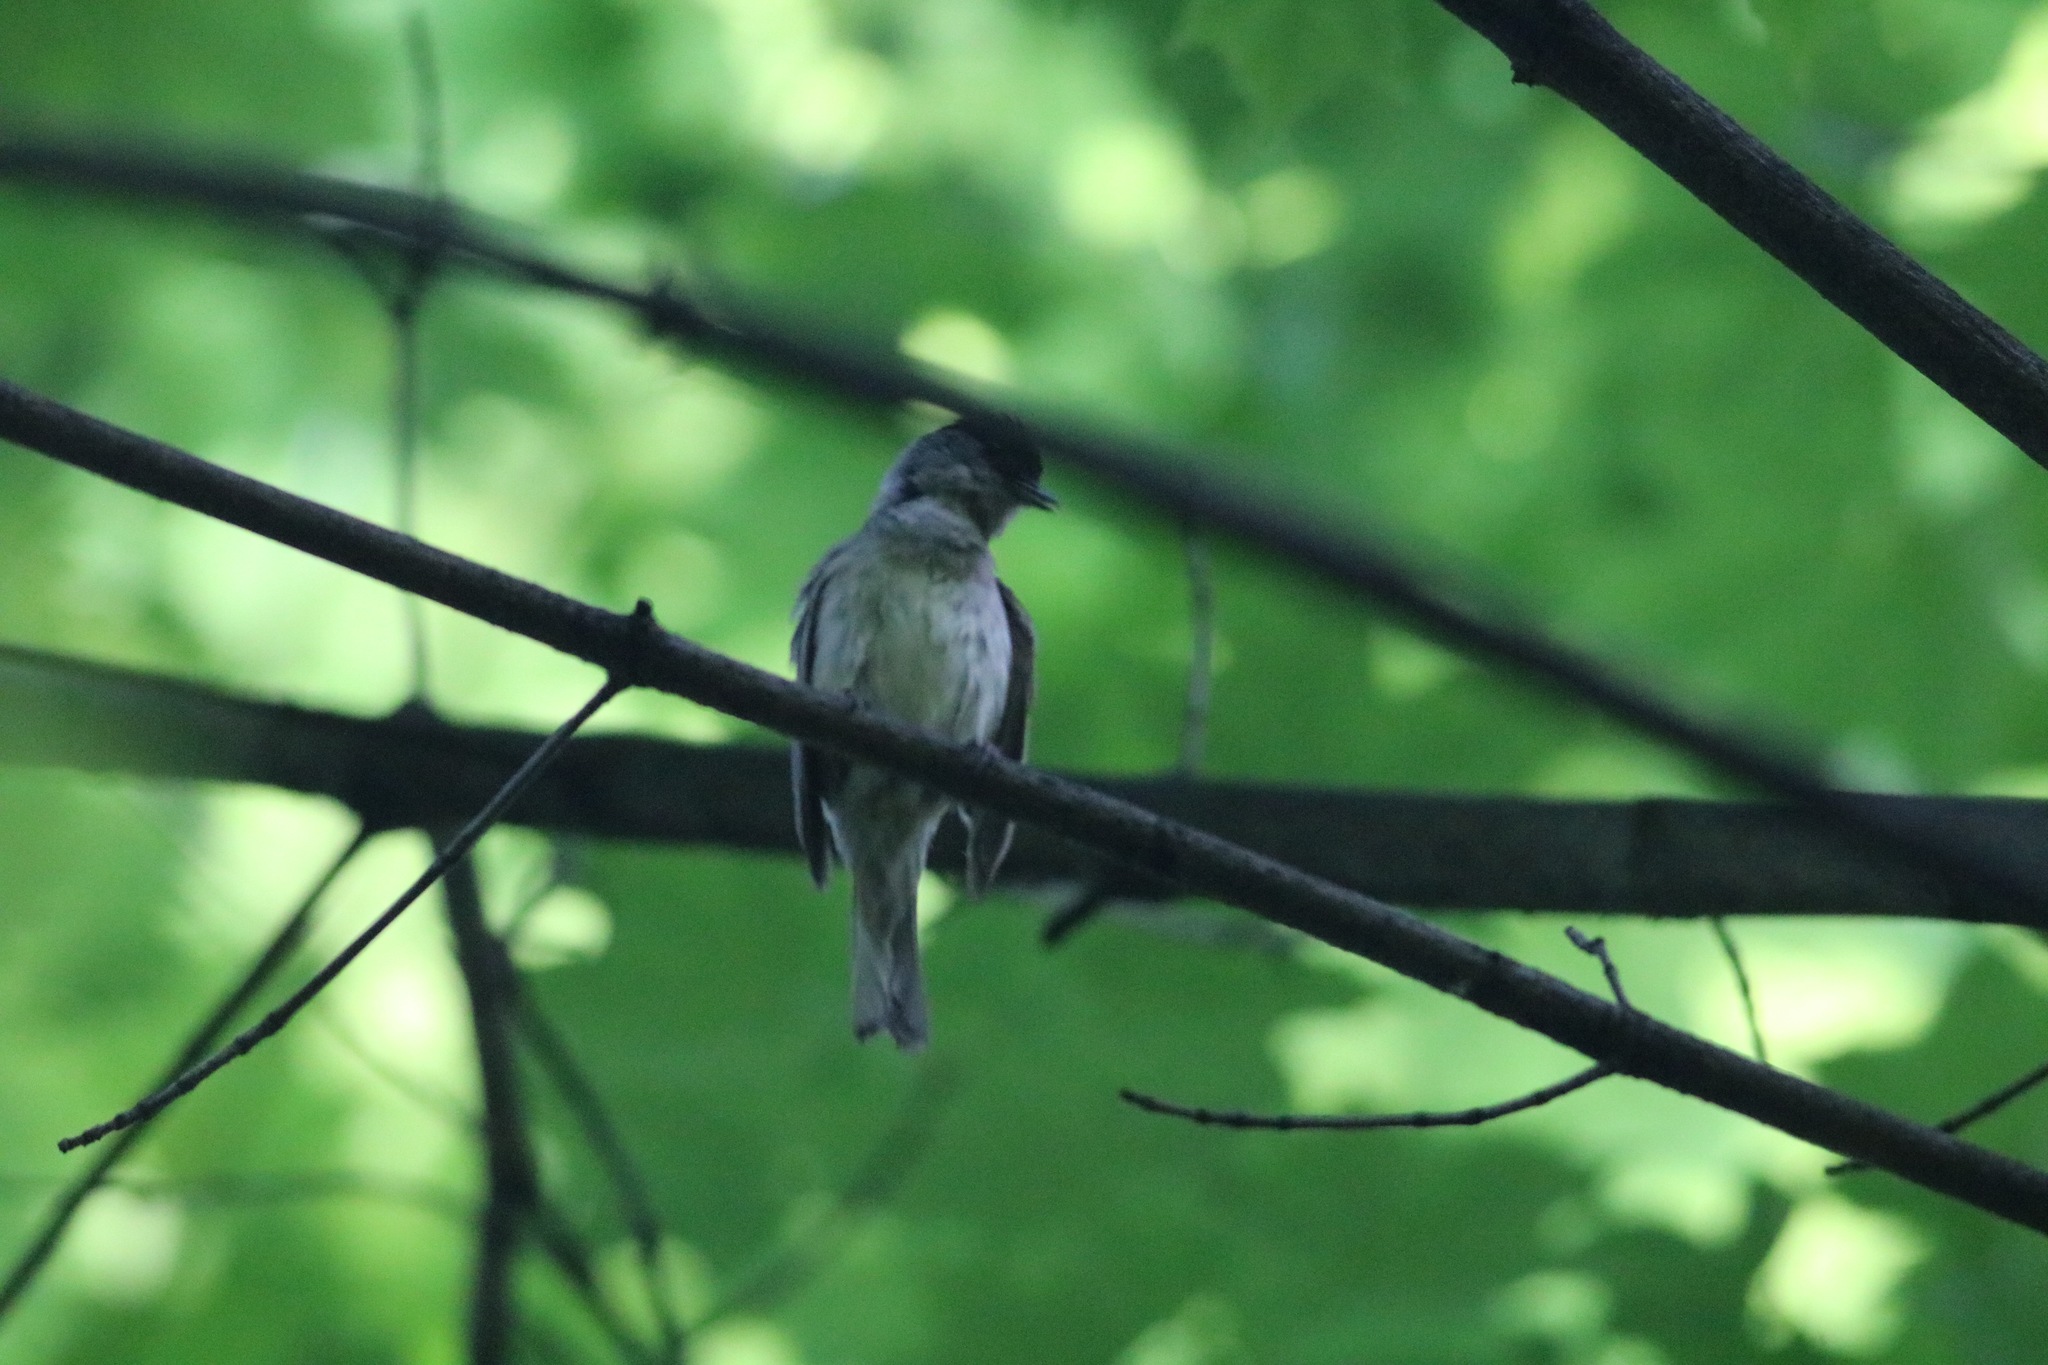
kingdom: Animalia
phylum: Chordata
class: Aves
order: Passeriformes
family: Sylviidae
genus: Sylvia
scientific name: Sylvia atricapilla
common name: Eurasian blackcap
